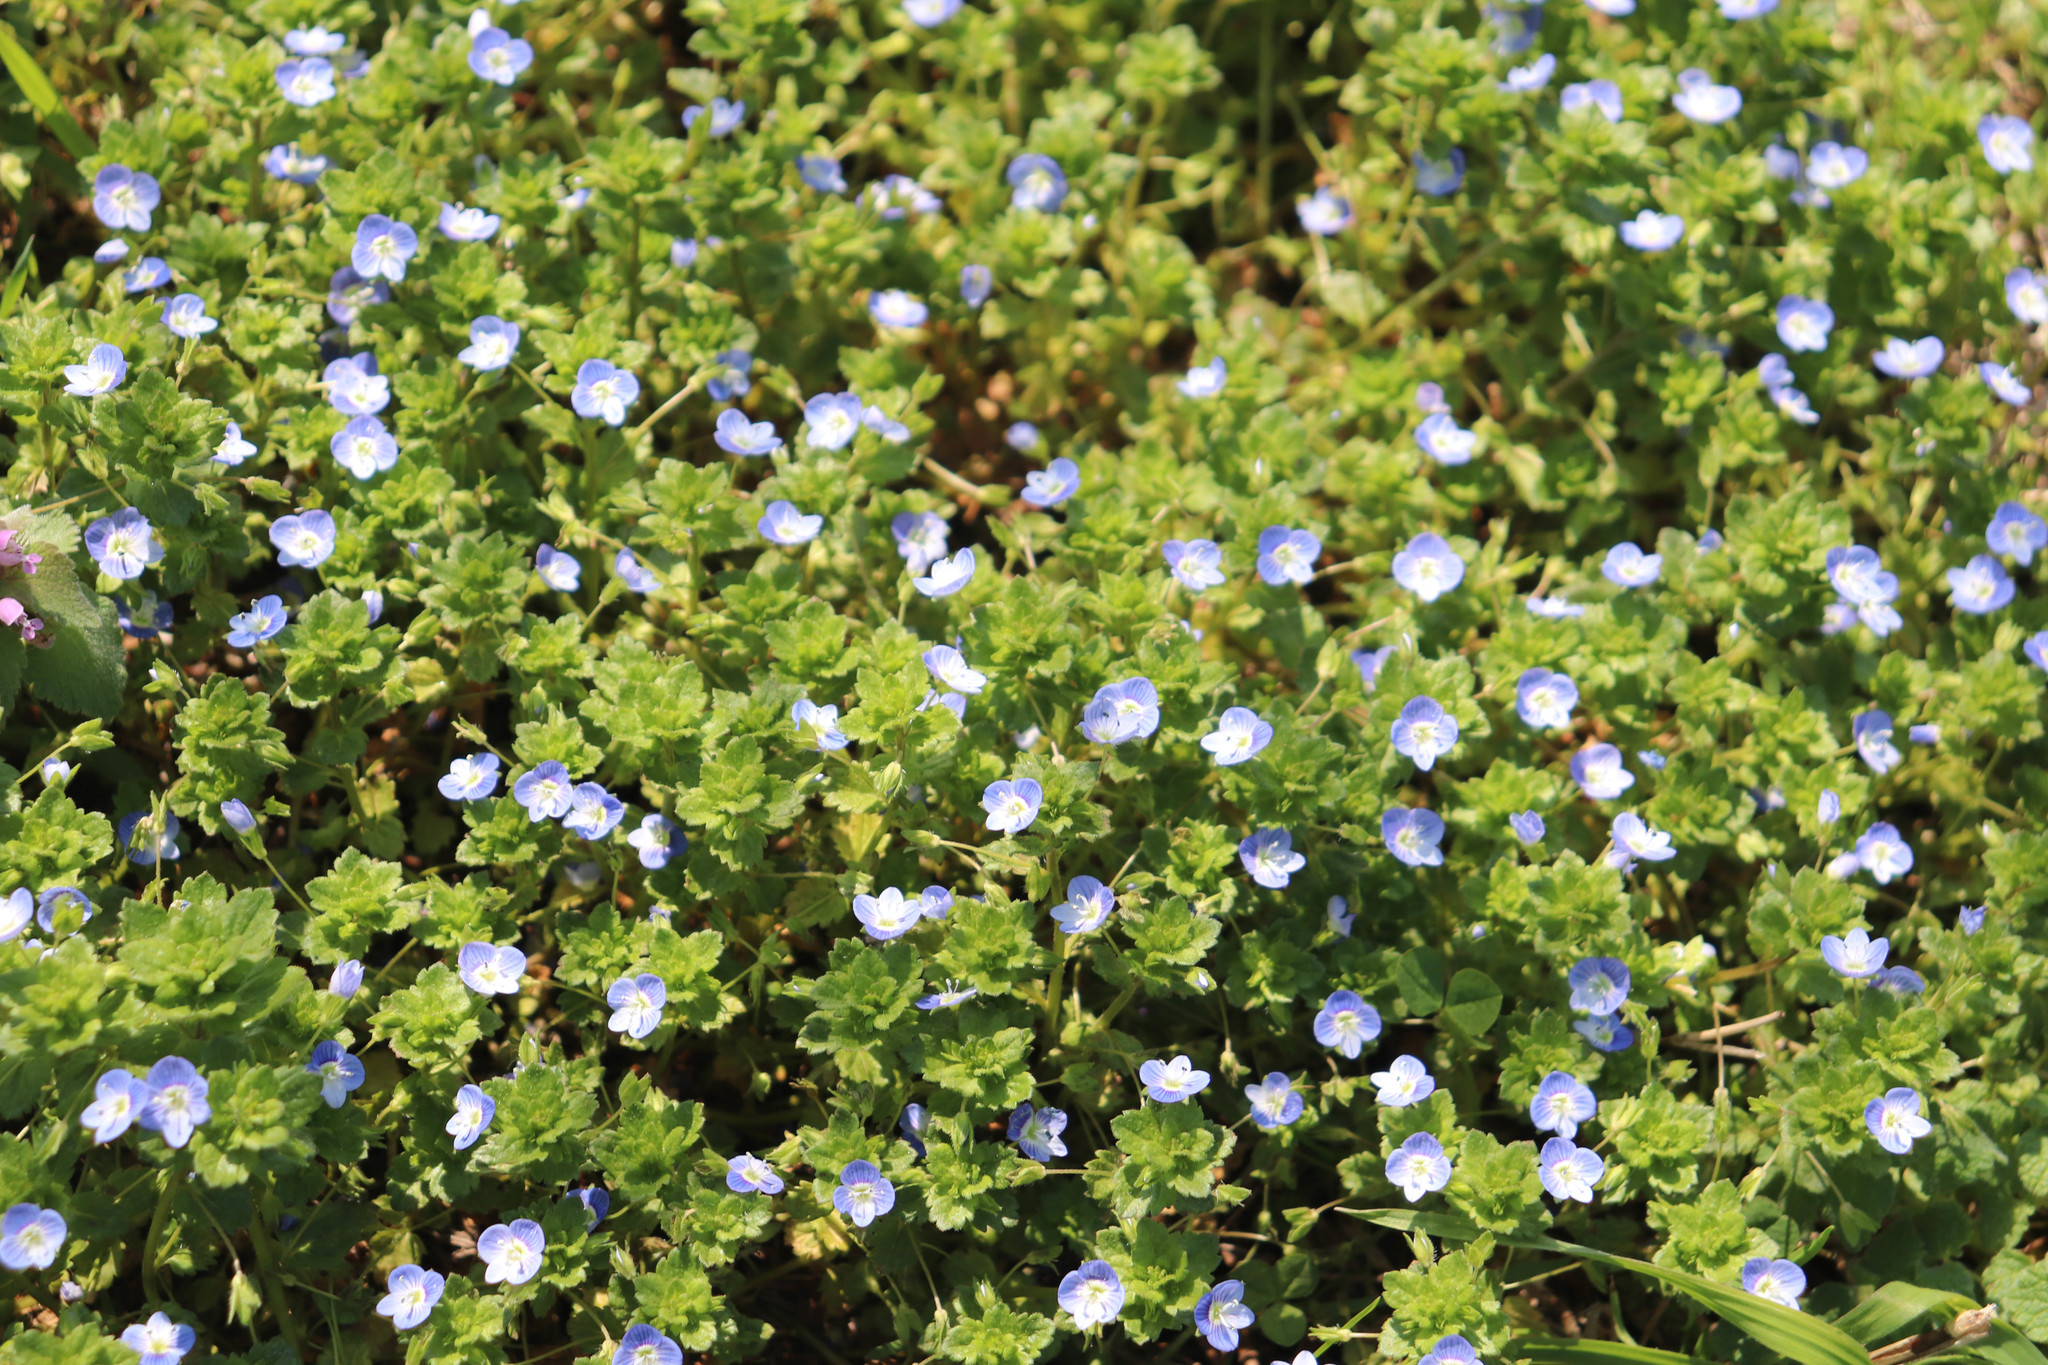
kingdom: Plantae
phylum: Tracheophyta
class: Magnoliopsida
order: Lamiales
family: Plantaginaceae
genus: Veronica
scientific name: Veronica persica
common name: Common field-speedwell
